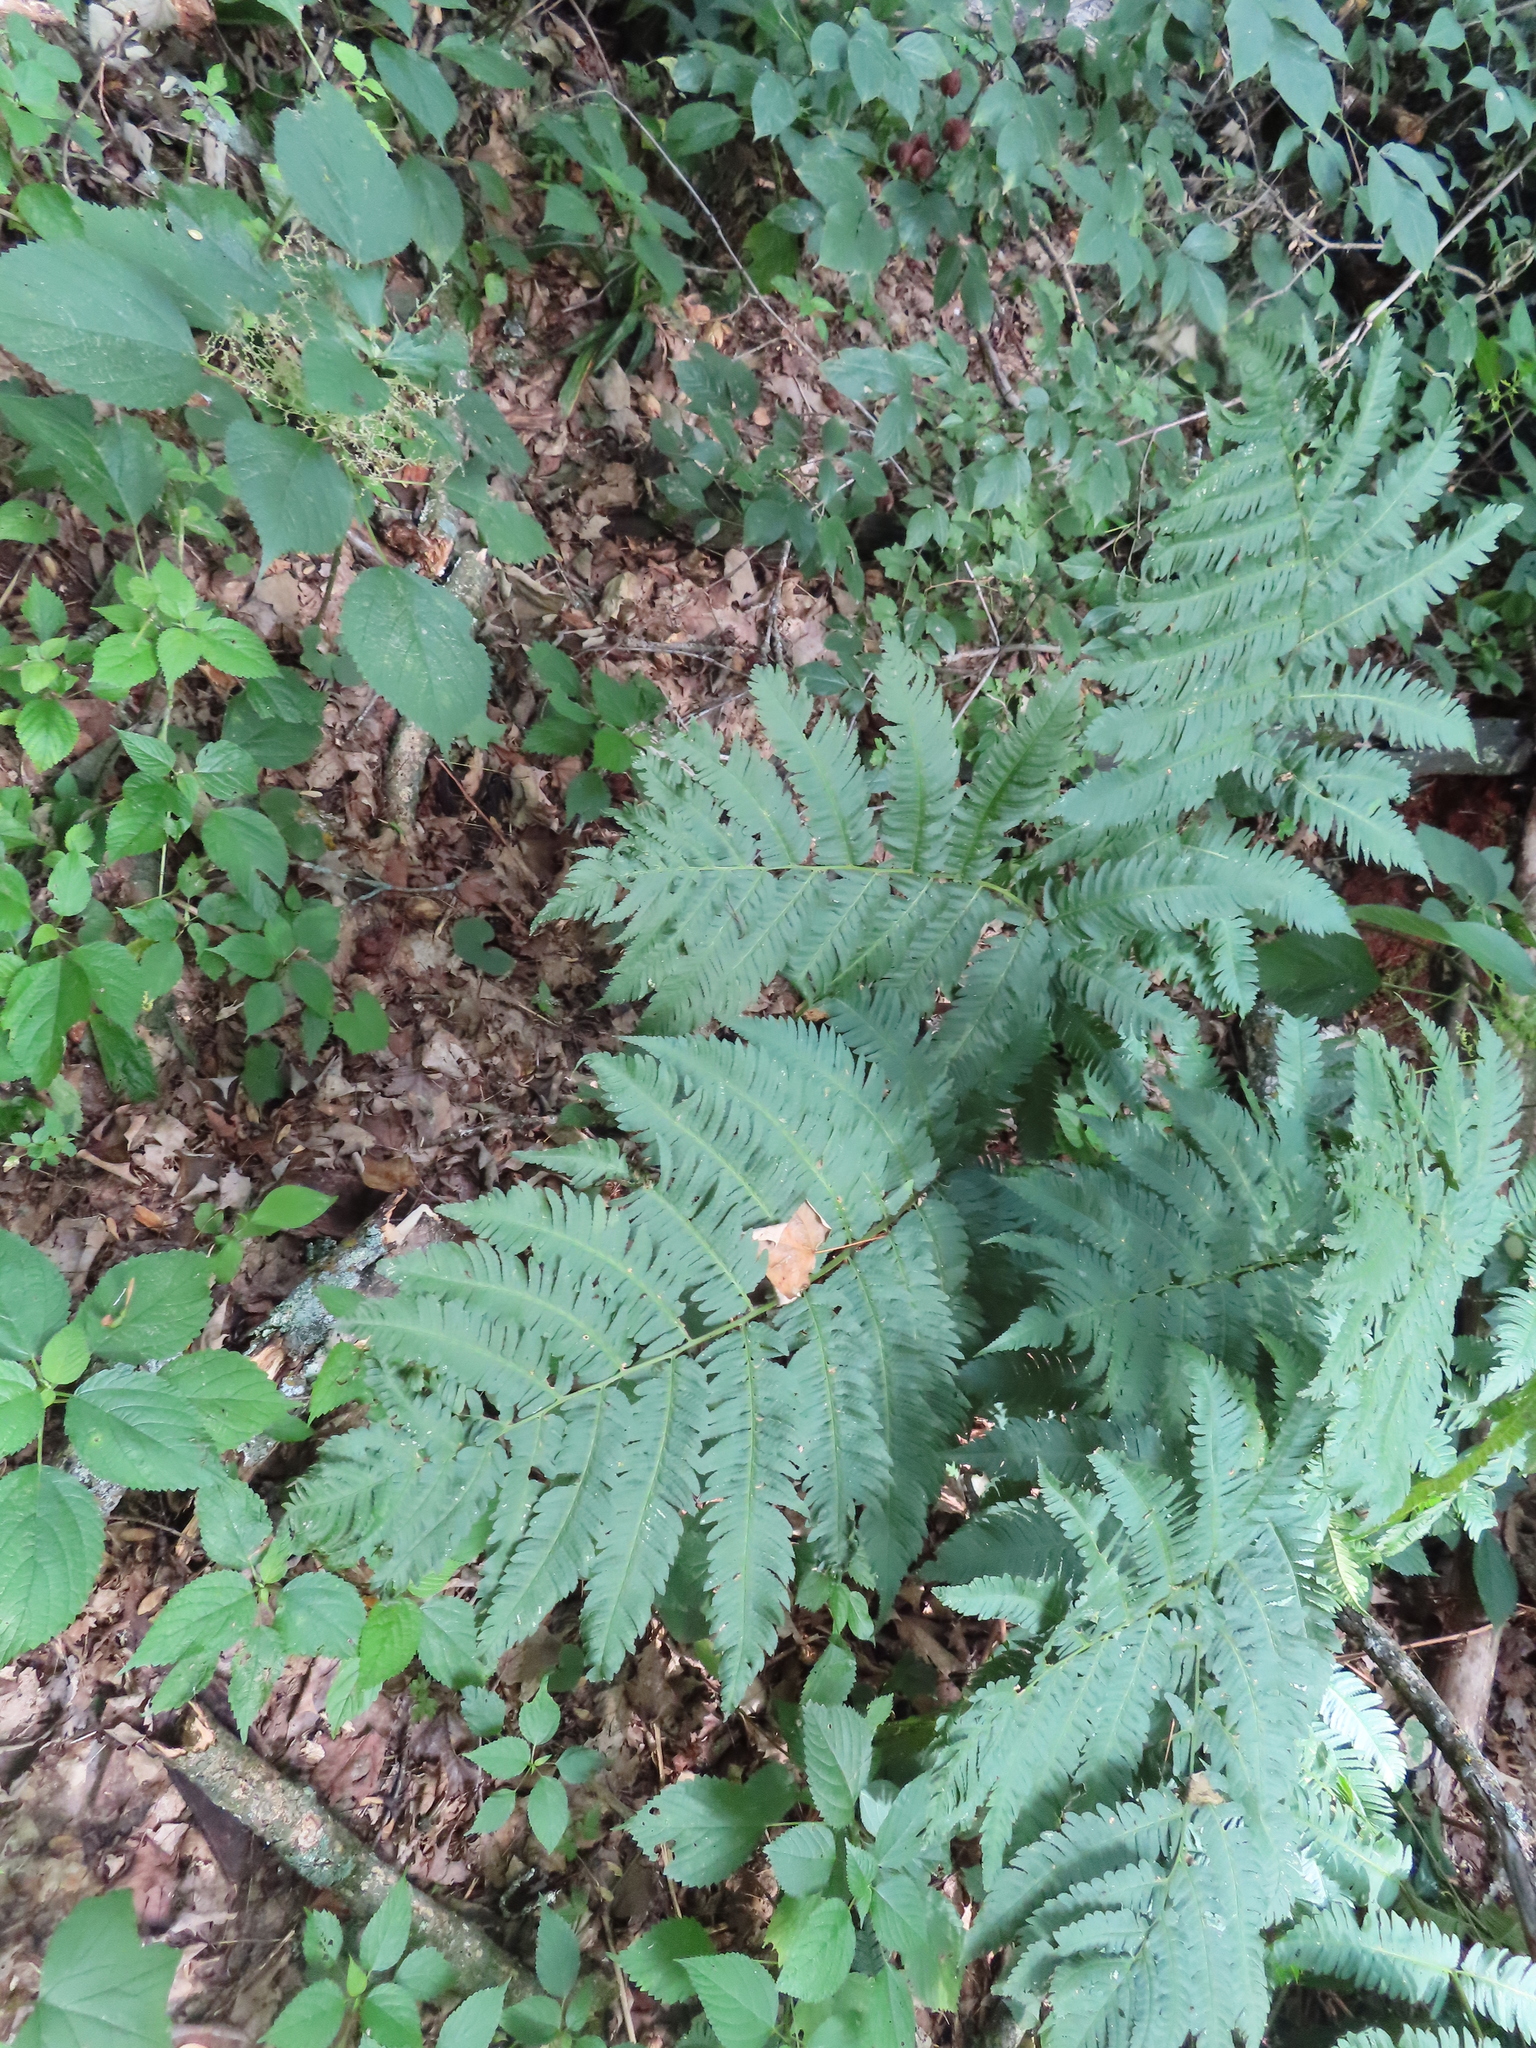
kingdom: Plantae
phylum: Tracheophyta
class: Polypodiopsida
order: Polypodiales
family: Dryopteridaceae
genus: Dryopteris
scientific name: Dryopteris goldieana
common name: Goldie's fern
